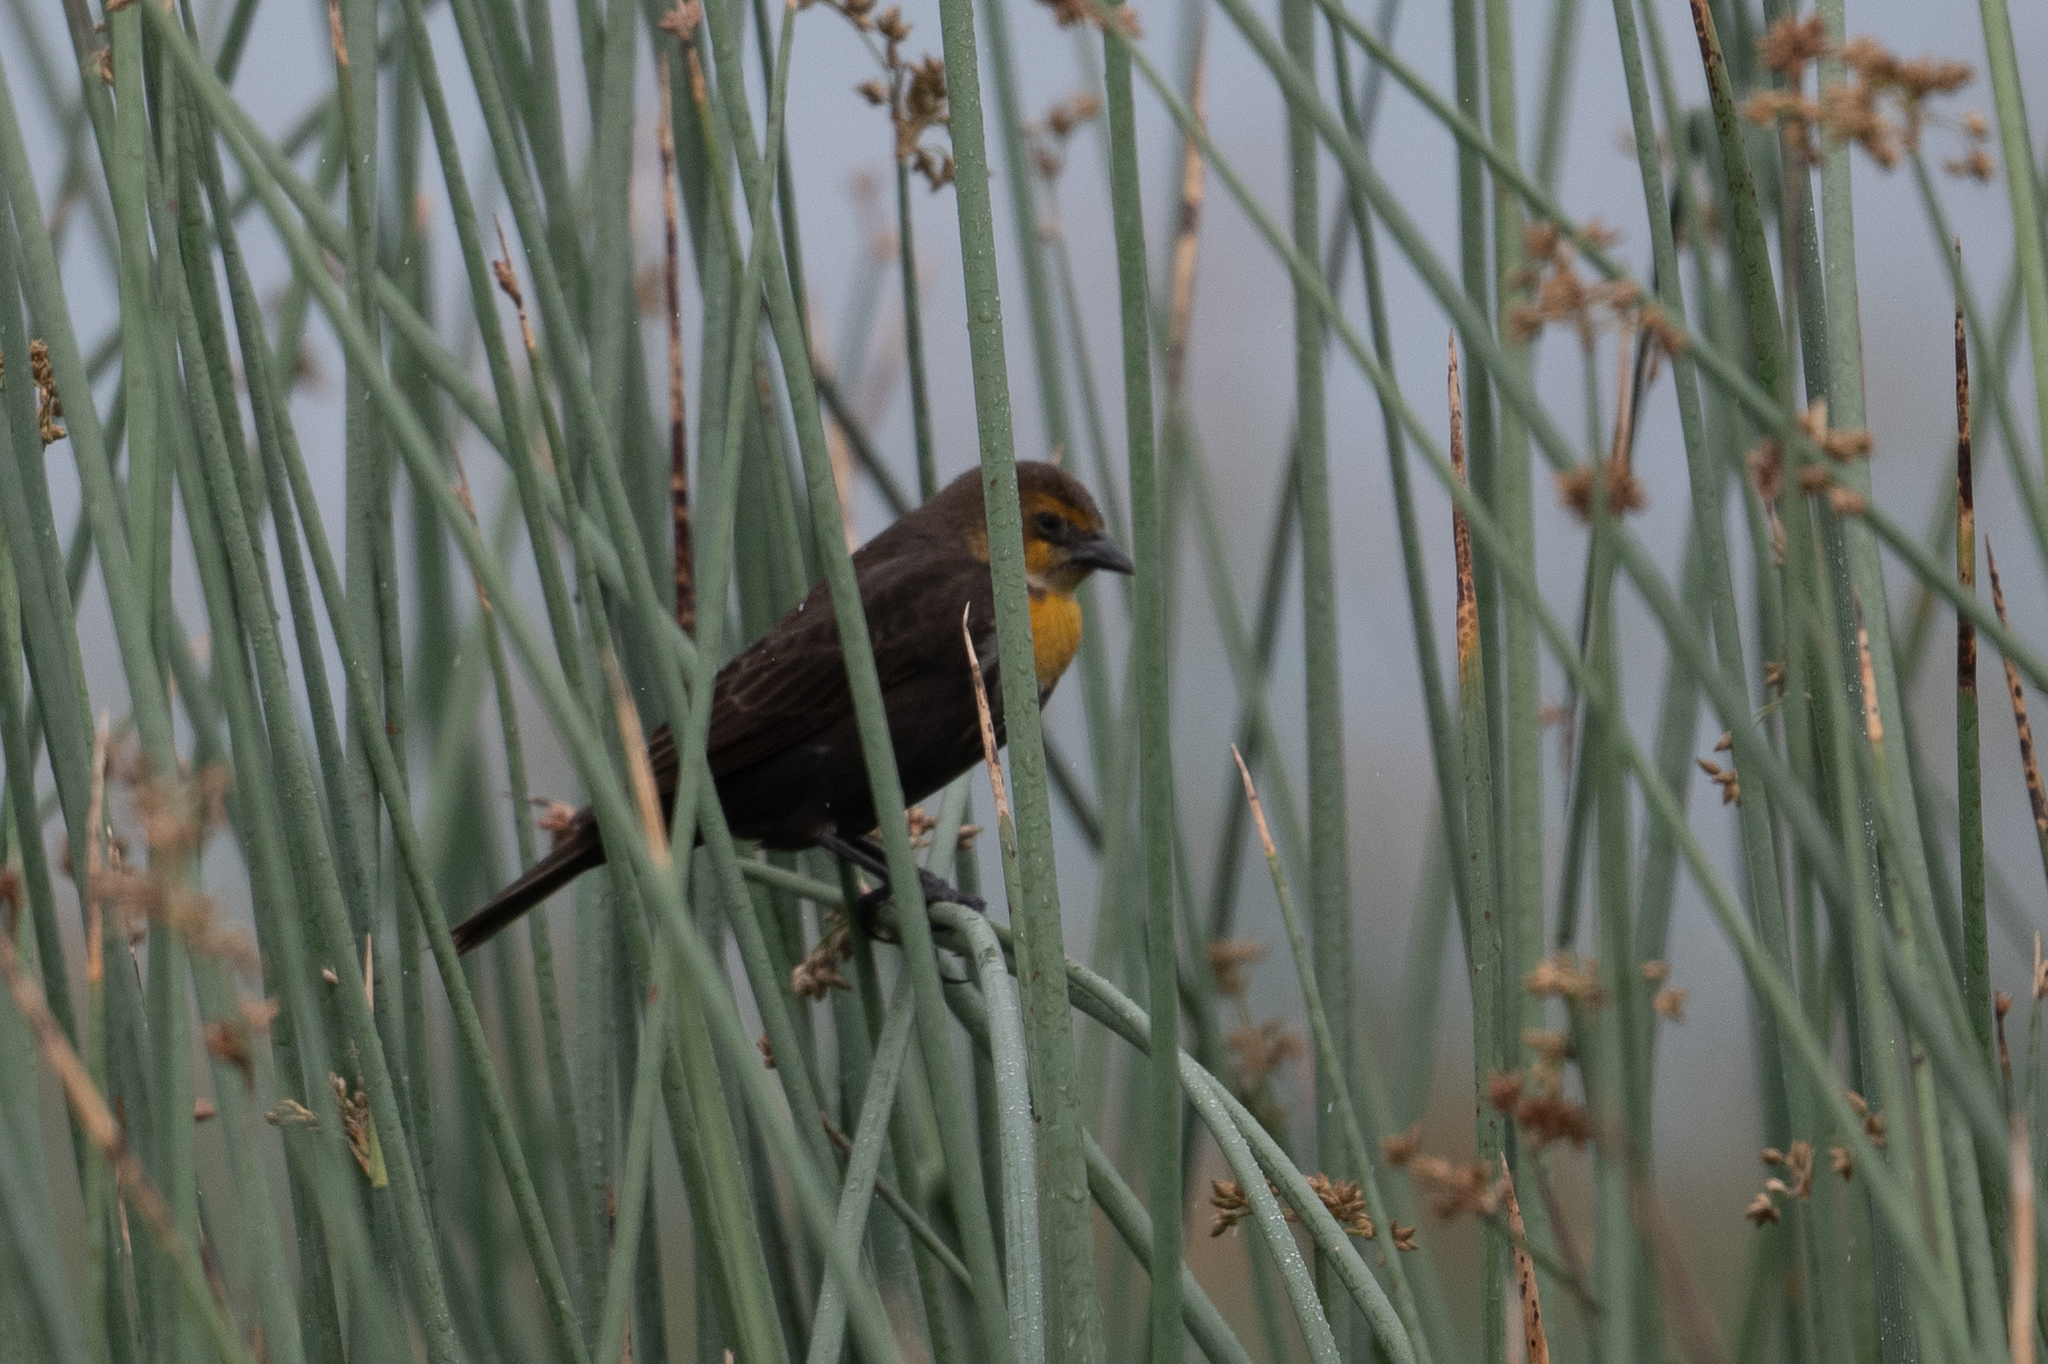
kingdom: Animalia
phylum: Chordata
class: Aves
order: Passeriformes
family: Icteridae
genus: Xanthocephalus
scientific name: Xanthocephalus xanthocephalus
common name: Yellow-headed blackbird
